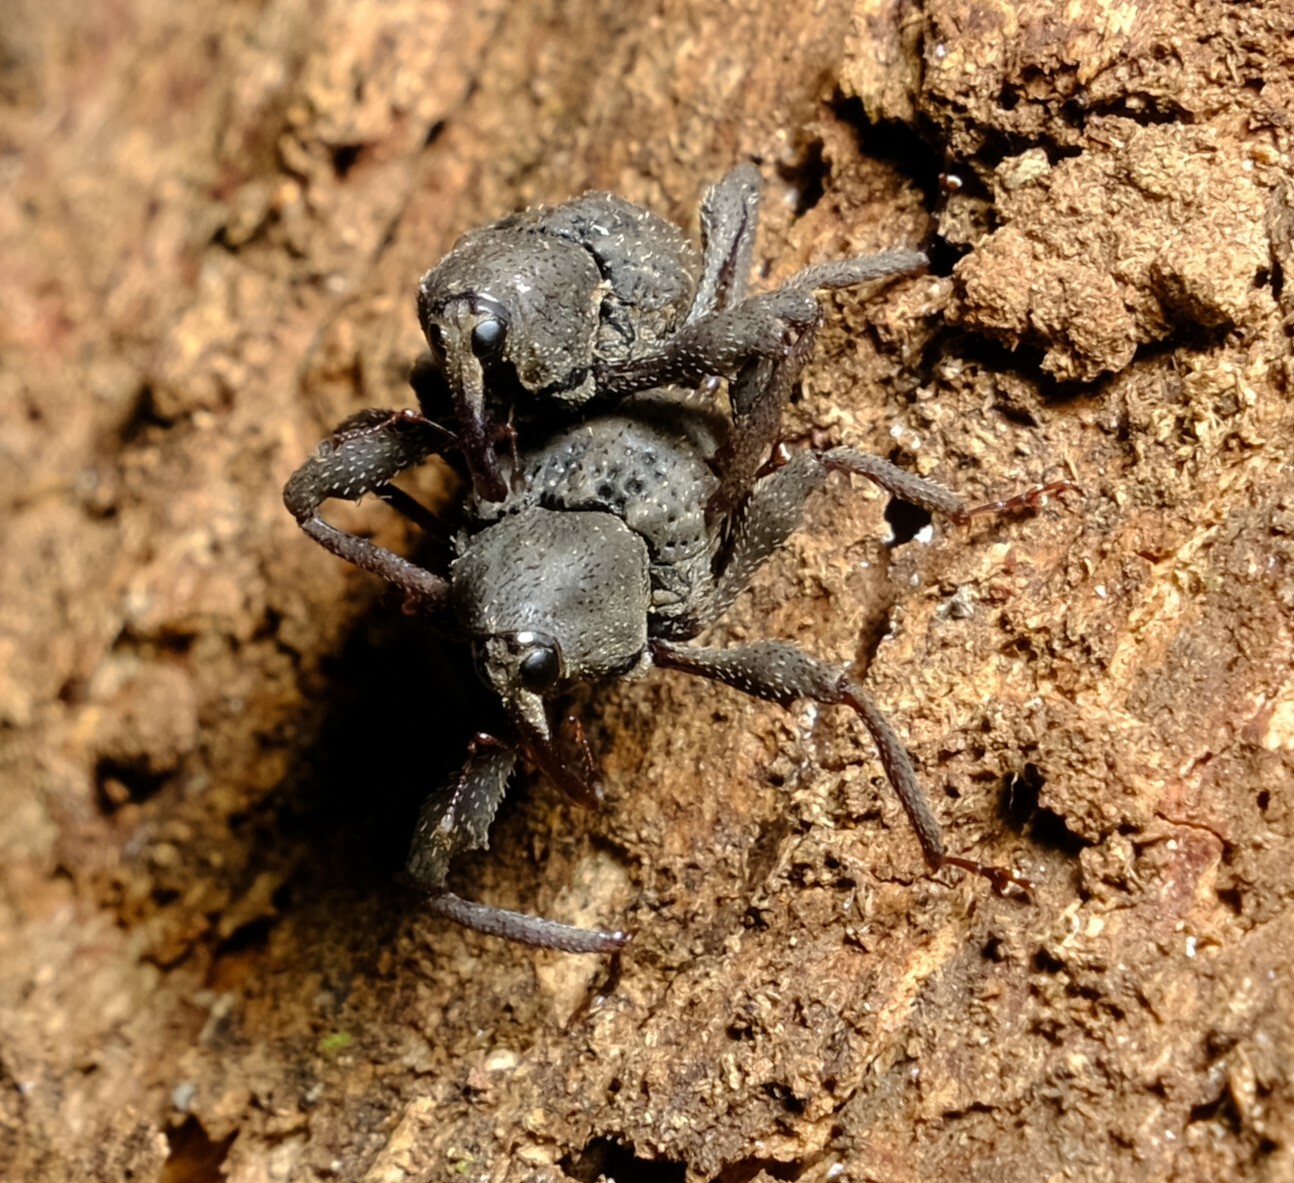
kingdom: Animalia
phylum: Arthropoda
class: Insecta
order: Coleoptera
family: Curculionidae
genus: Onidistus
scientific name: Onidistus araneus
